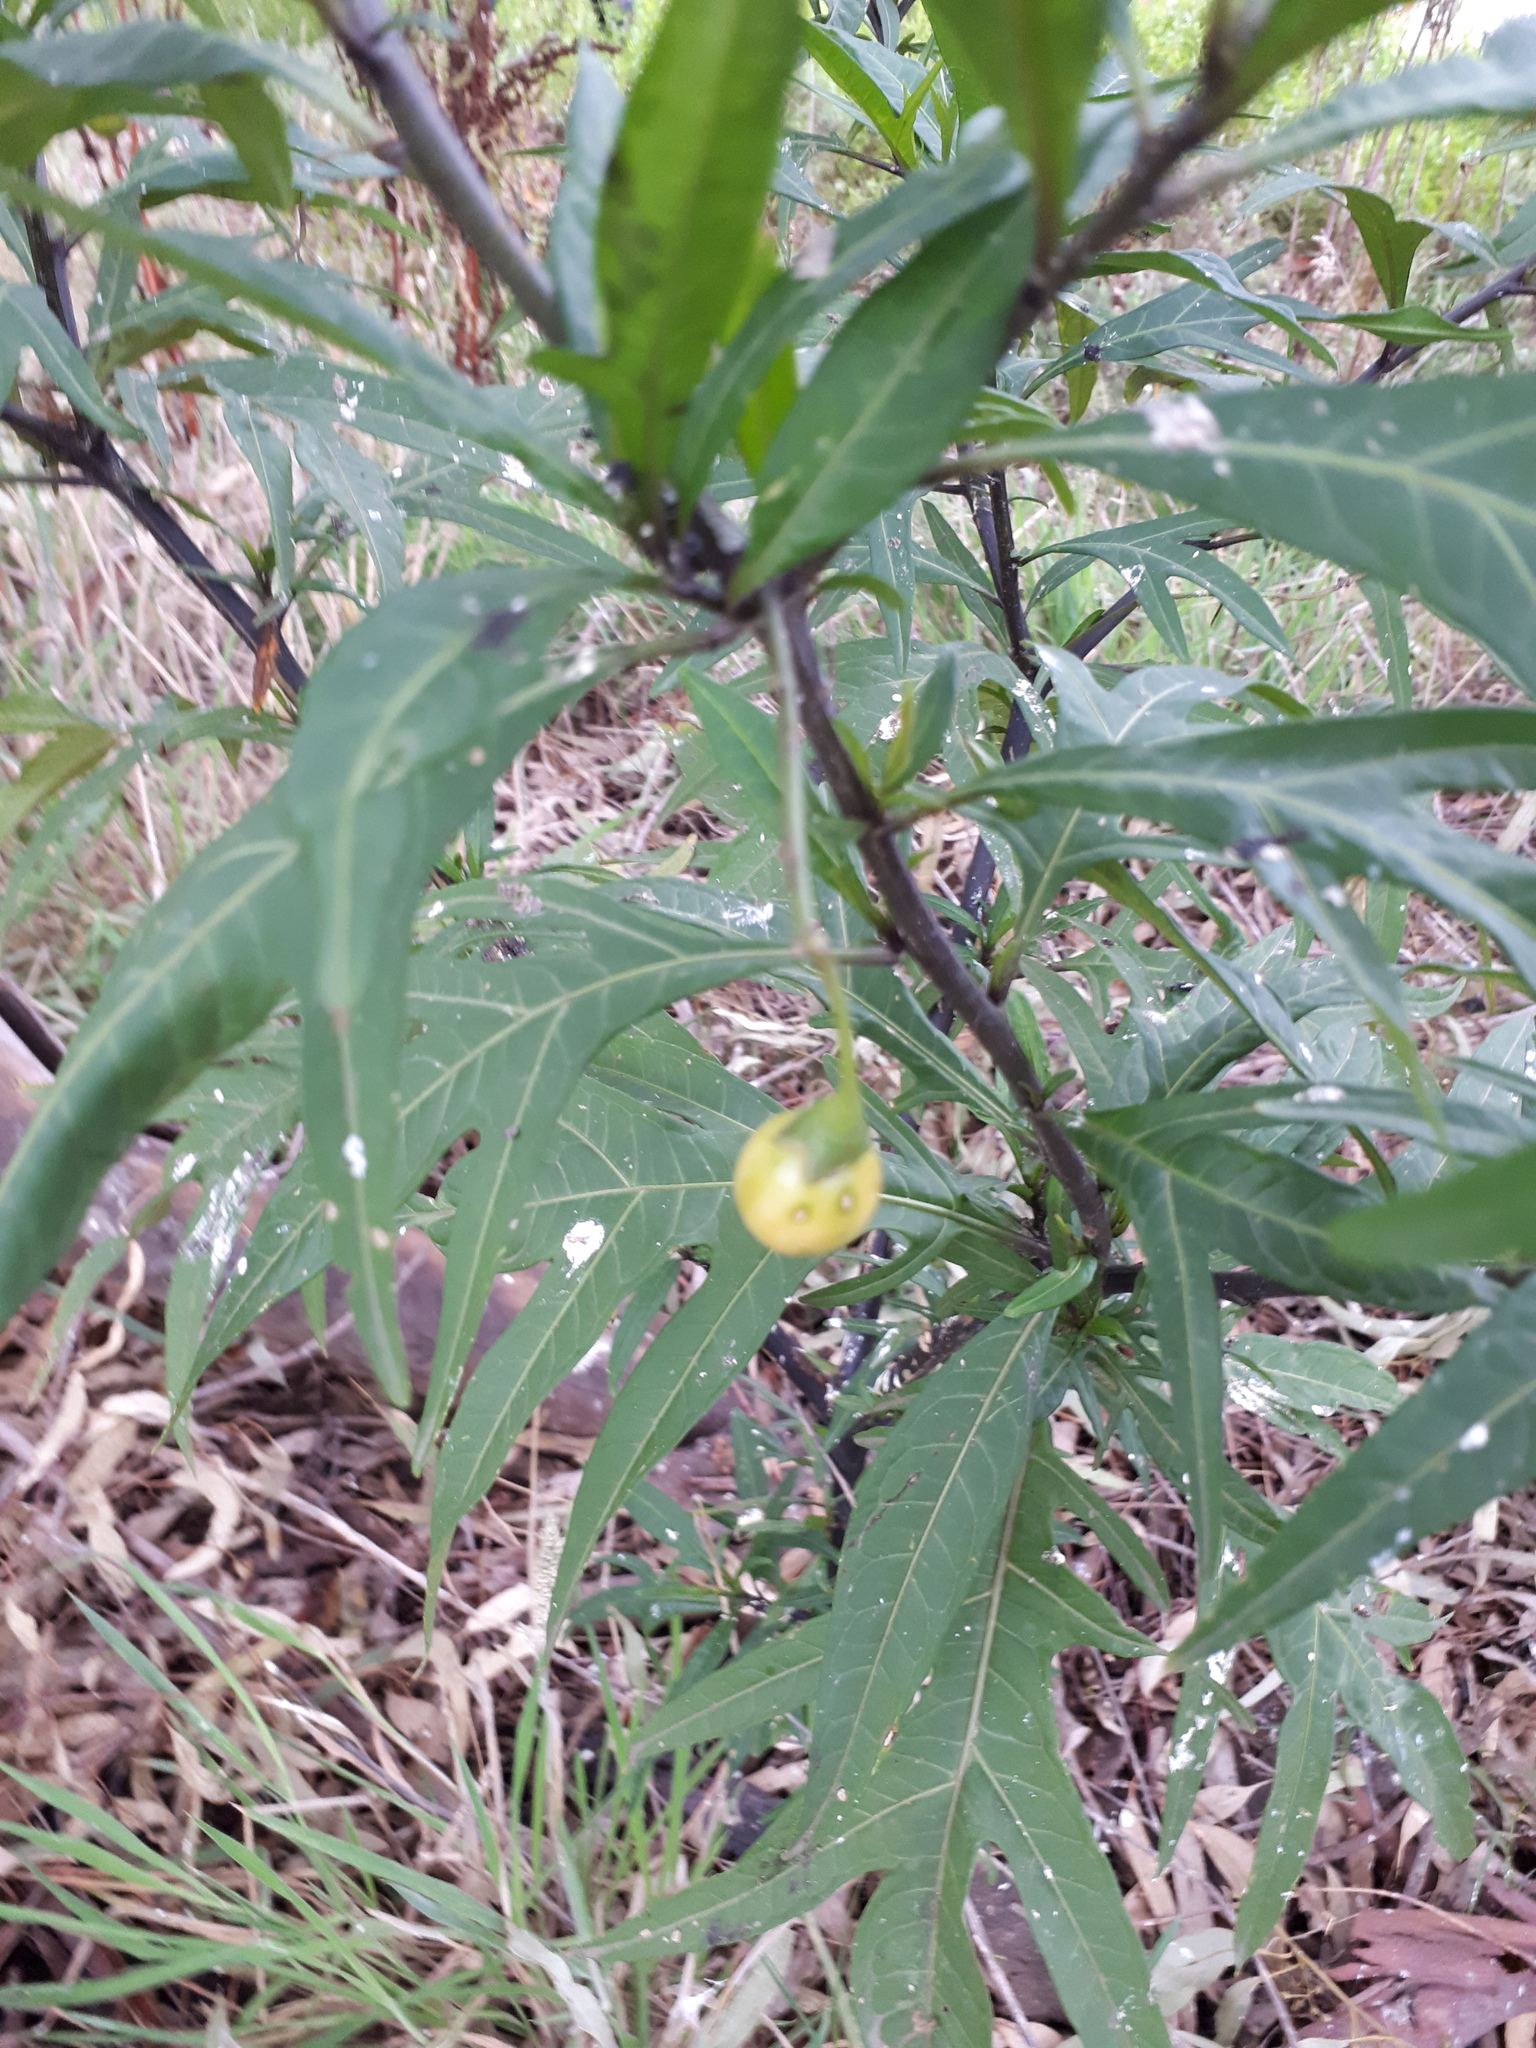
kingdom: Plantae
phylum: Tracheophyta
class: Magnoliopsida
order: Solanales
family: Solanaceae
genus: Solanum
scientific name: Solanum laciniatum
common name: Kangaroo-apple
